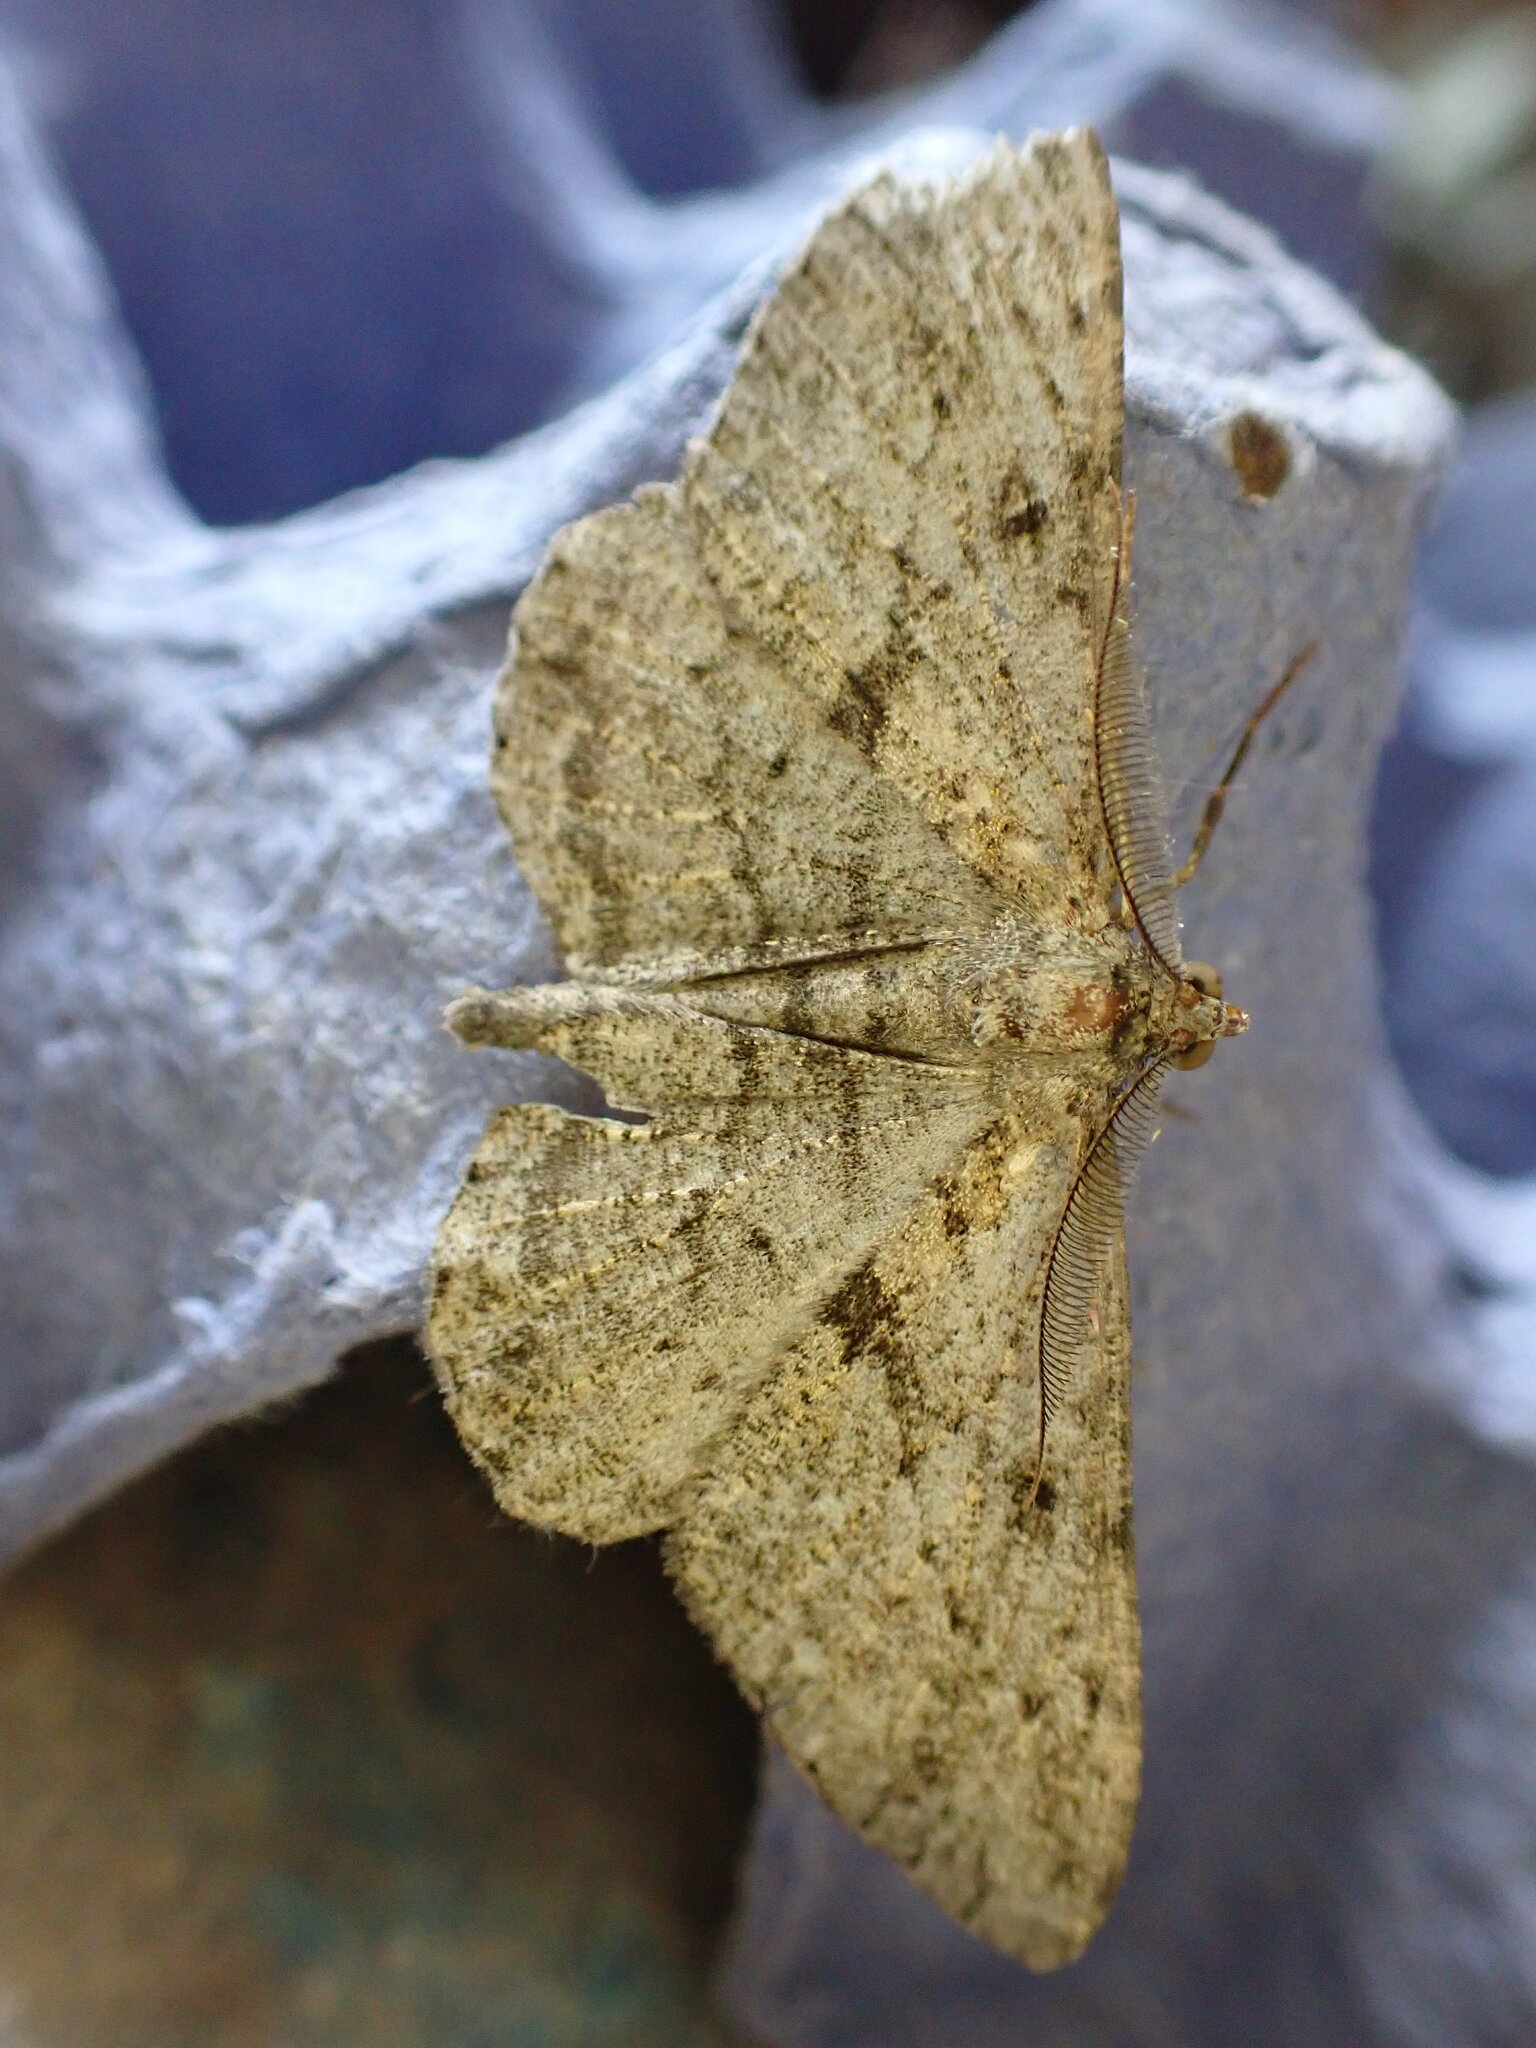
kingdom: Animalia
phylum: Arthropoda
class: Insecta
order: Lepidoptera
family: Geometridae
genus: Peribatodes
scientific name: Peribatodes rhomboidaria
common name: Willow beauty
